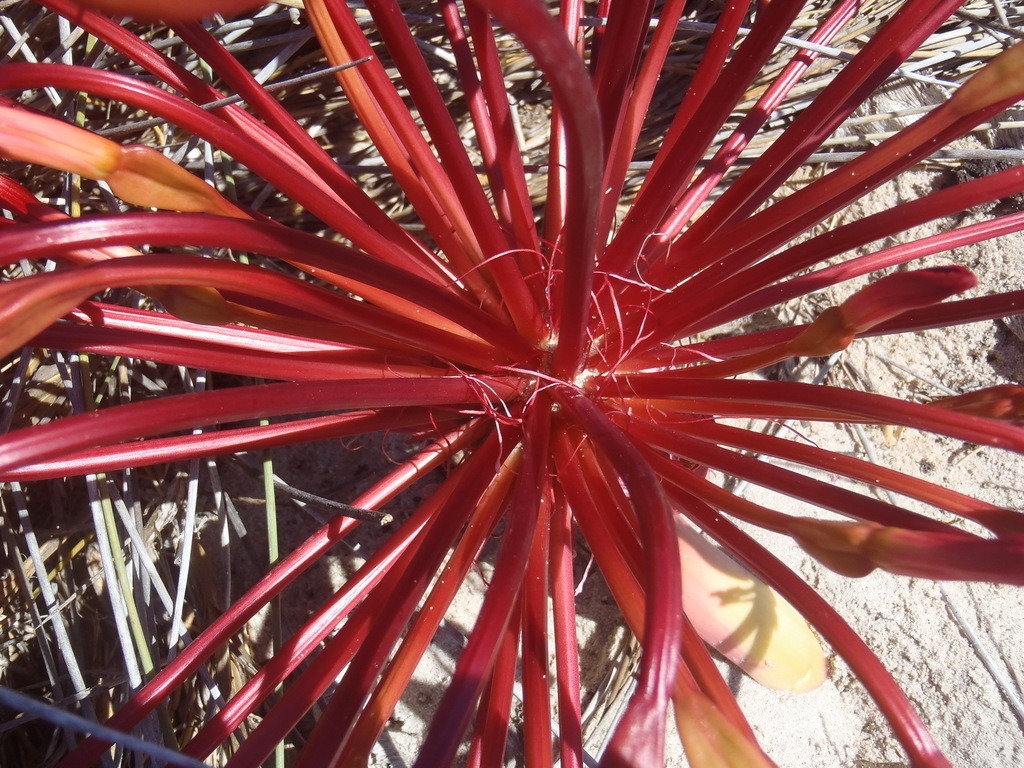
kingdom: Plantae
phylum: Tracheophyta
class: Liliopsida
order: Asparagales
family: Amaryllidaceae
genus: Brunsvigia
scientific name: Brunsvigia orientalis
